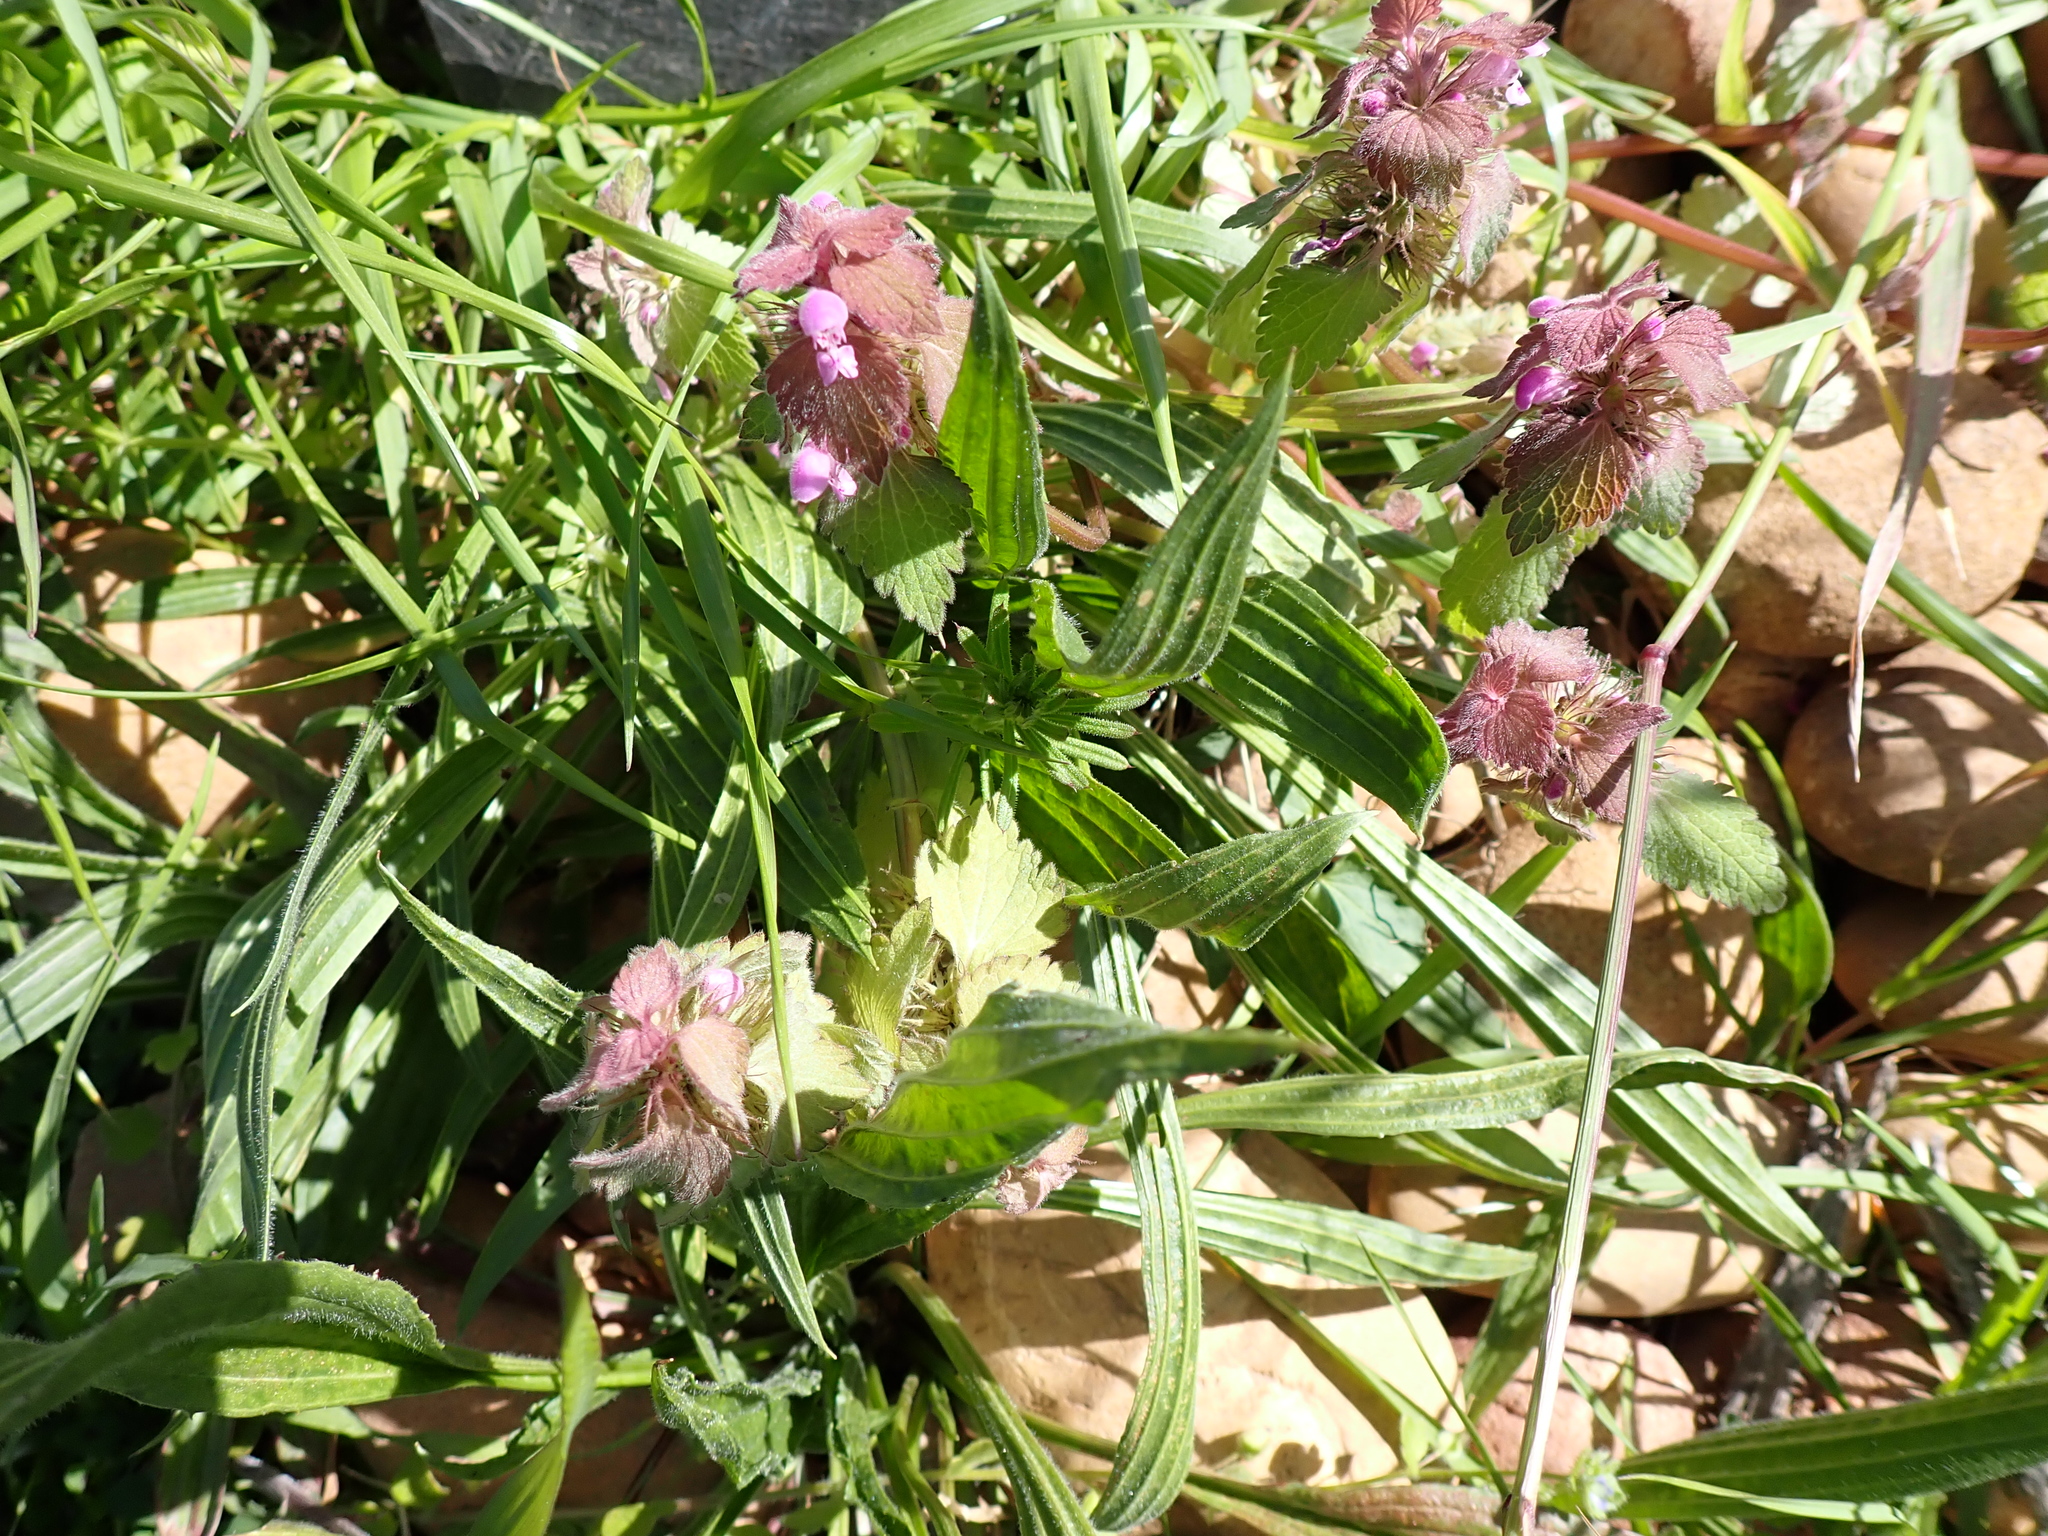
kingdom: Plantae
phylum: Tracheophyta
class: Magnoliopsida
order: Lamiales
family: Lamiaceae
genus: Lamium
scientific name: Lamium purpureum
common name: Red dead-nettle
